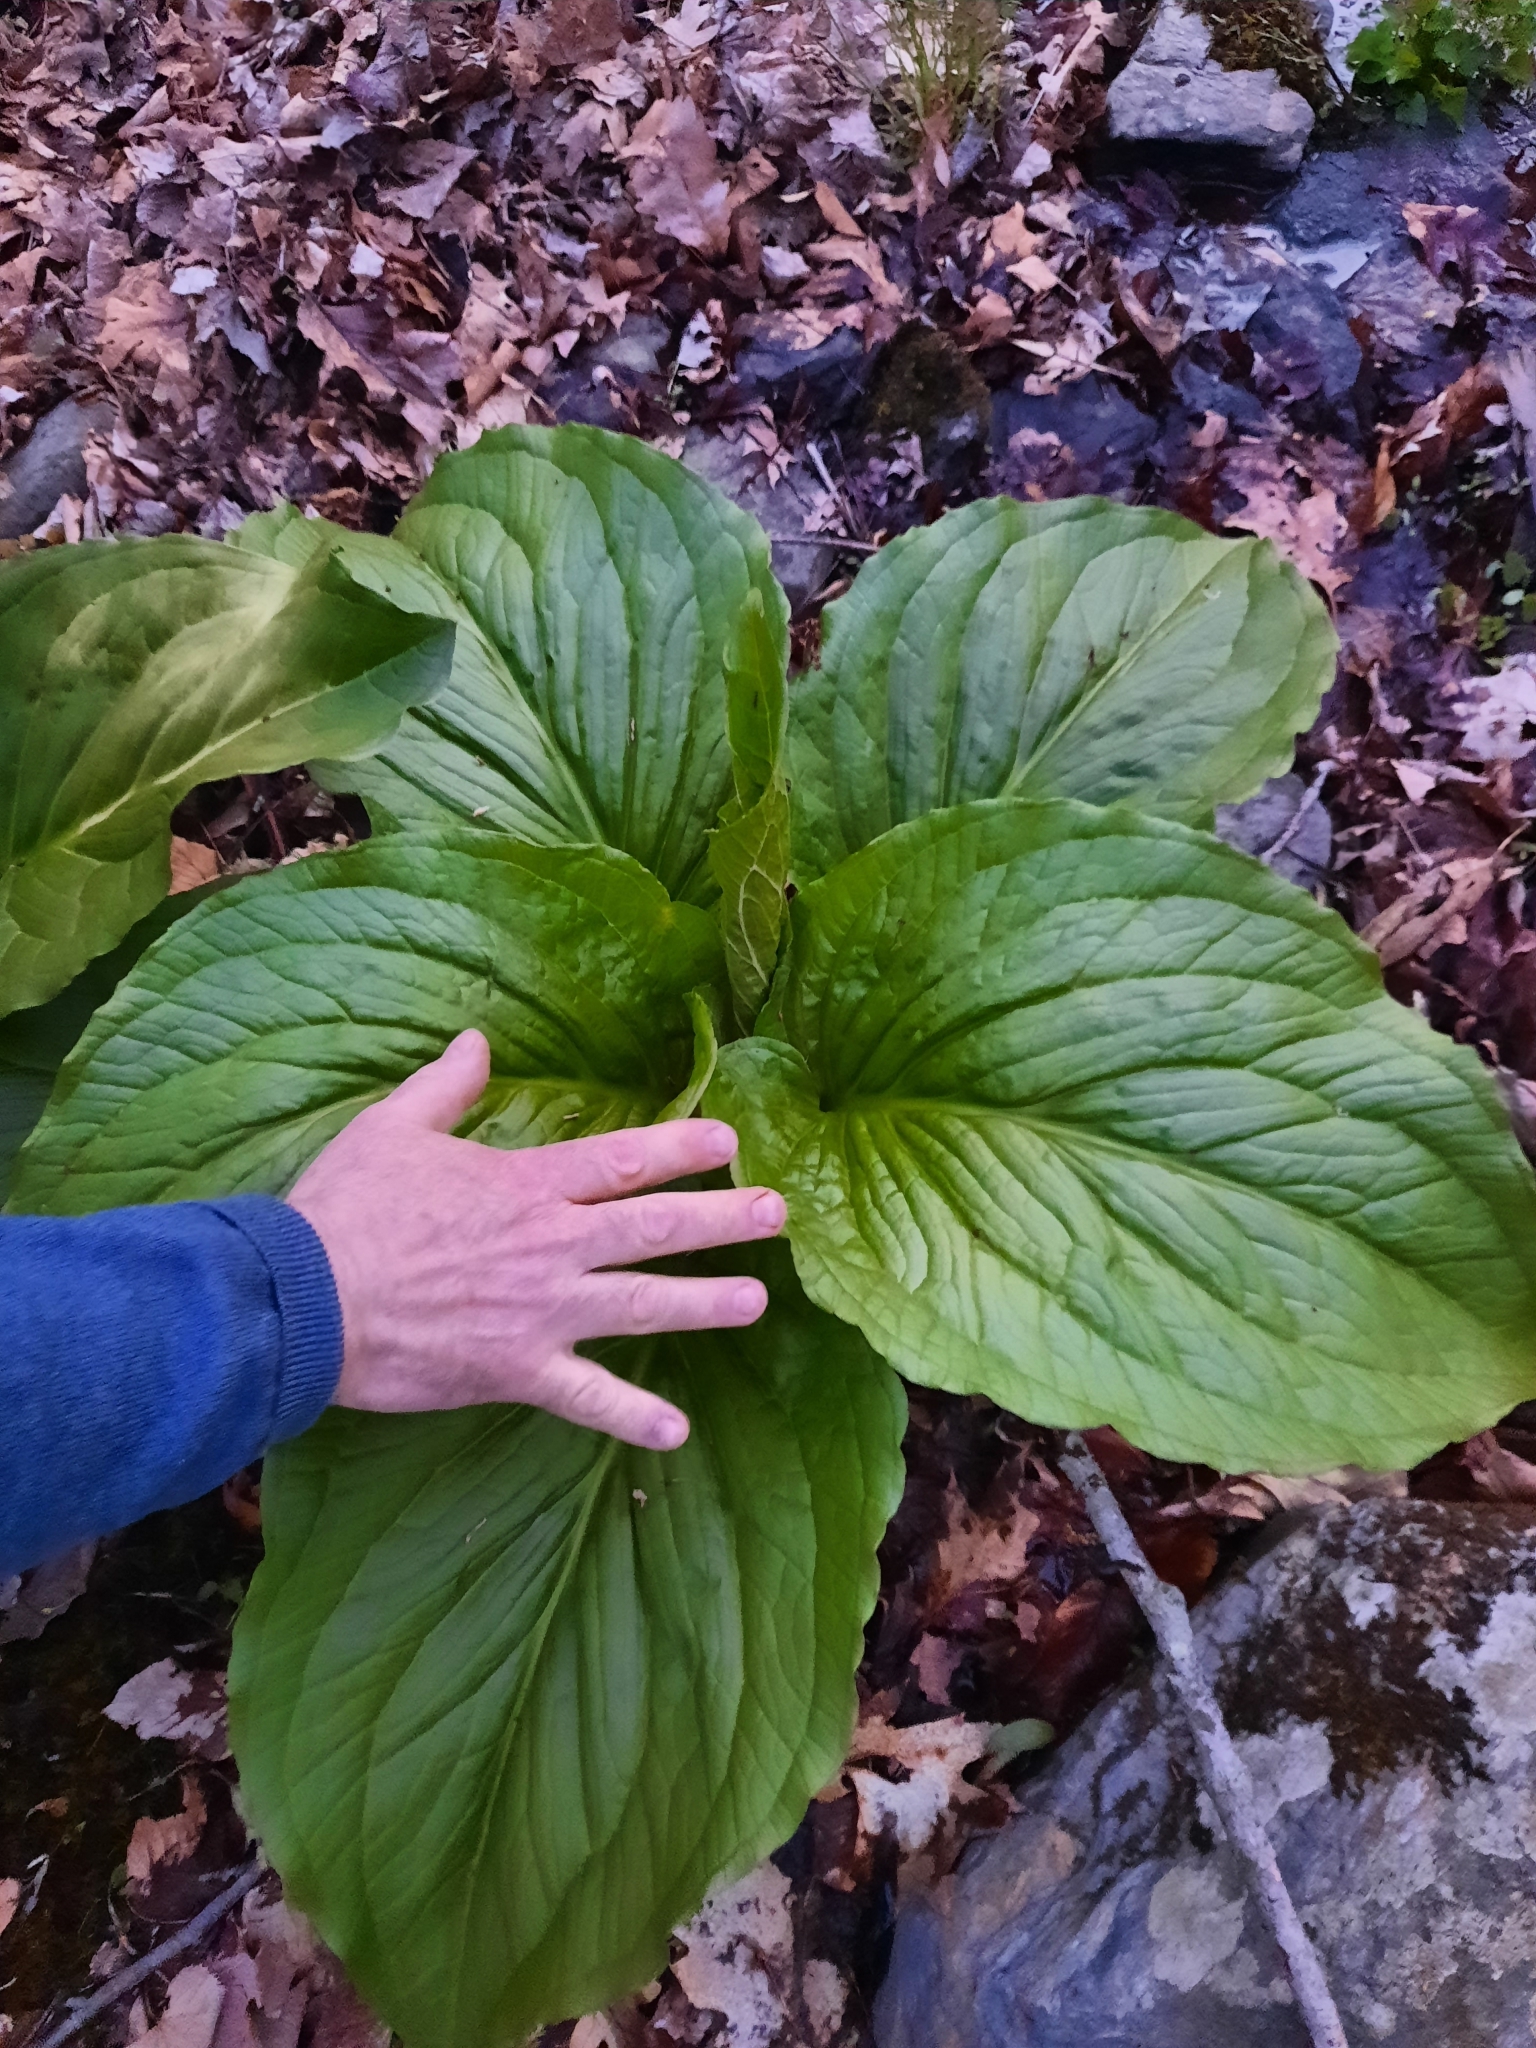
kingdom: Plantae
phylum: Tracheophyta
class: Liliopsida
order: Alismatales
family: Araceae
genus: Symplocarpus
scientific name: Symplocarpus foetidus
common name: Eastern skunk cabbage
